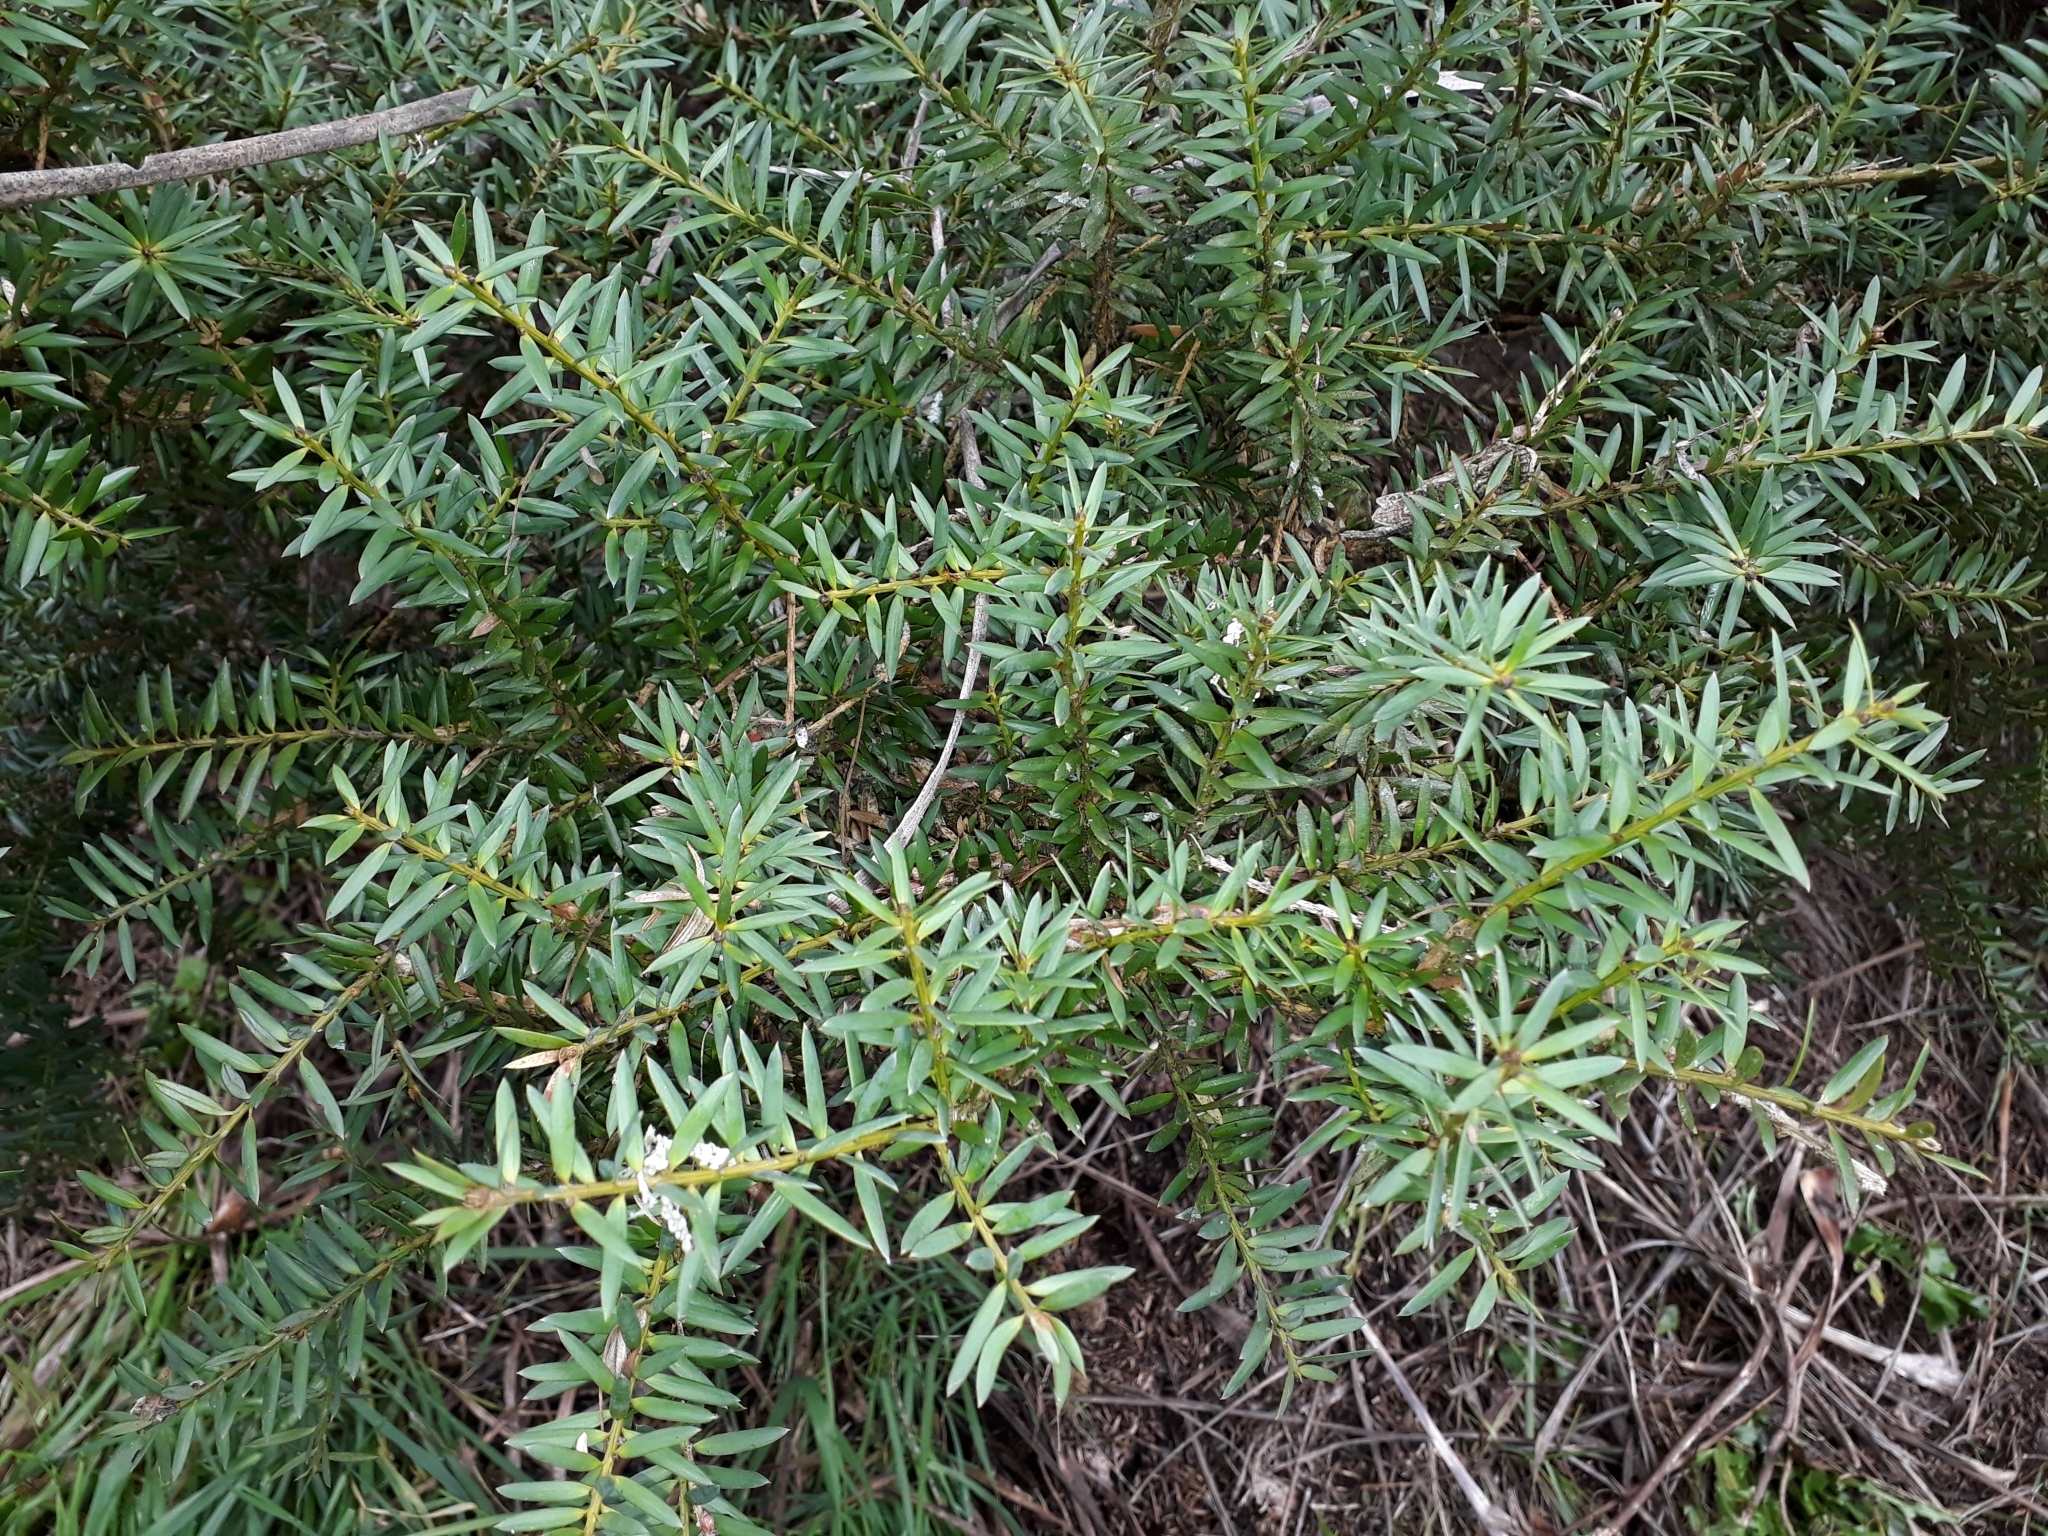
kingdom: Plantae
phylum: Tracheophyta
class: Pinopsida
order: Pinales
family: Podocarpaceae
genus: Podocarpus
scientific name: Podocarpus totara
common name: Totara
